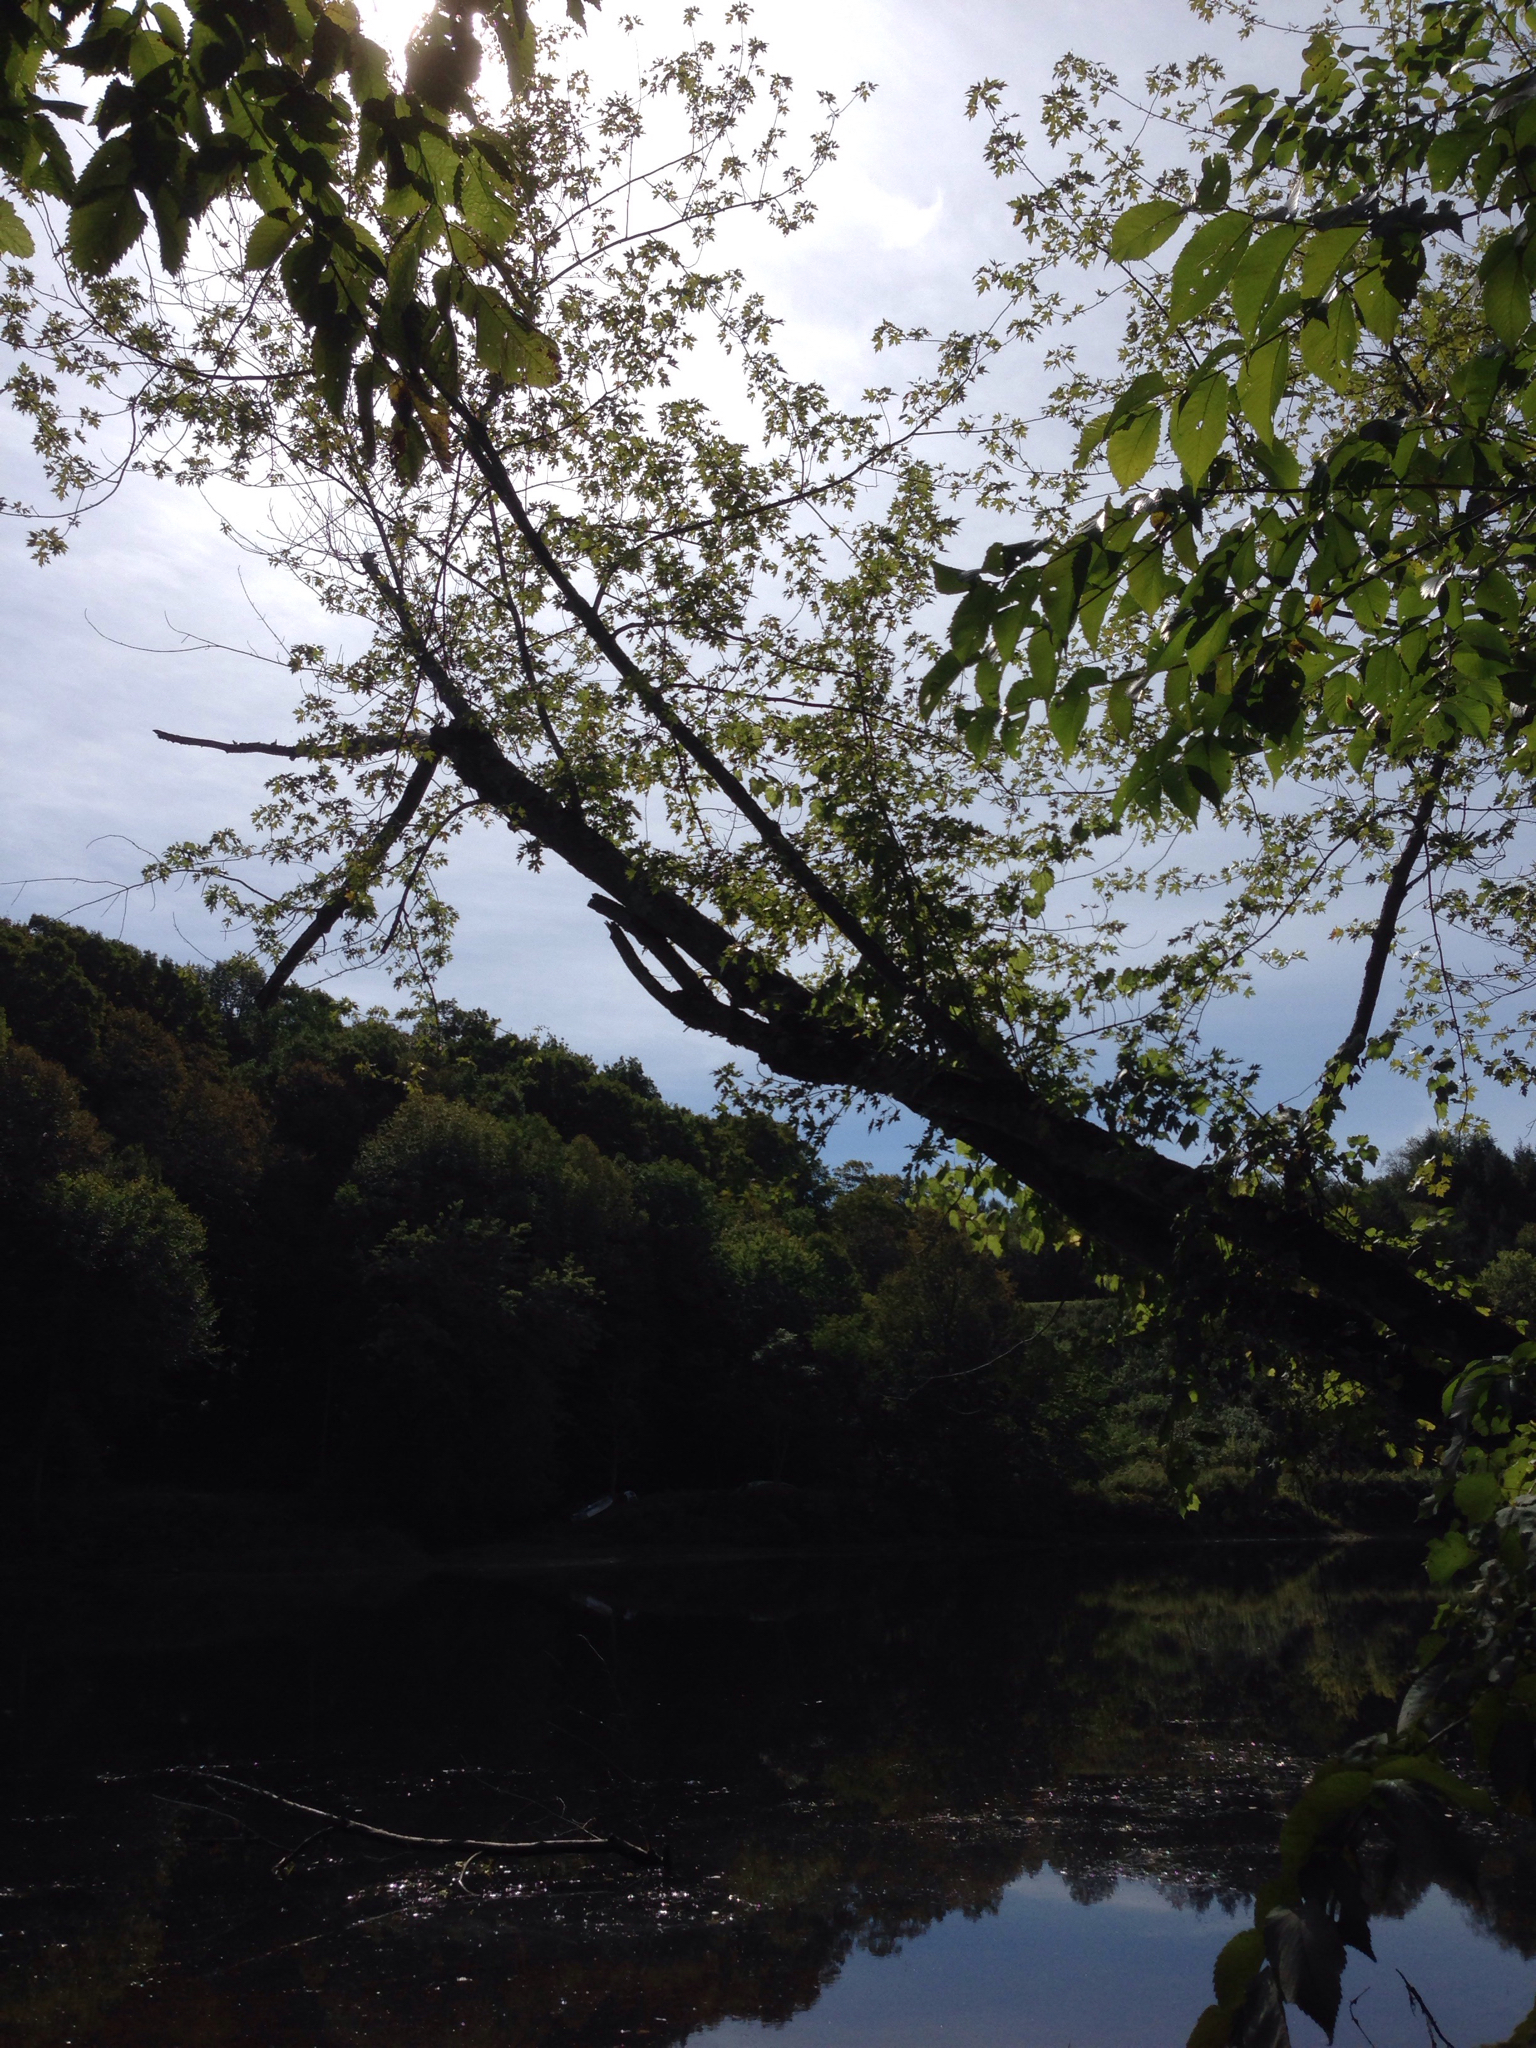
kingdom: Plantae
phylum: Tracheophyta
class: Magnoliopsida
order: Sapindales
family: Sapindaceae
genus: Acer
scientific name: Acer saccharinum
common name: Silver maple
